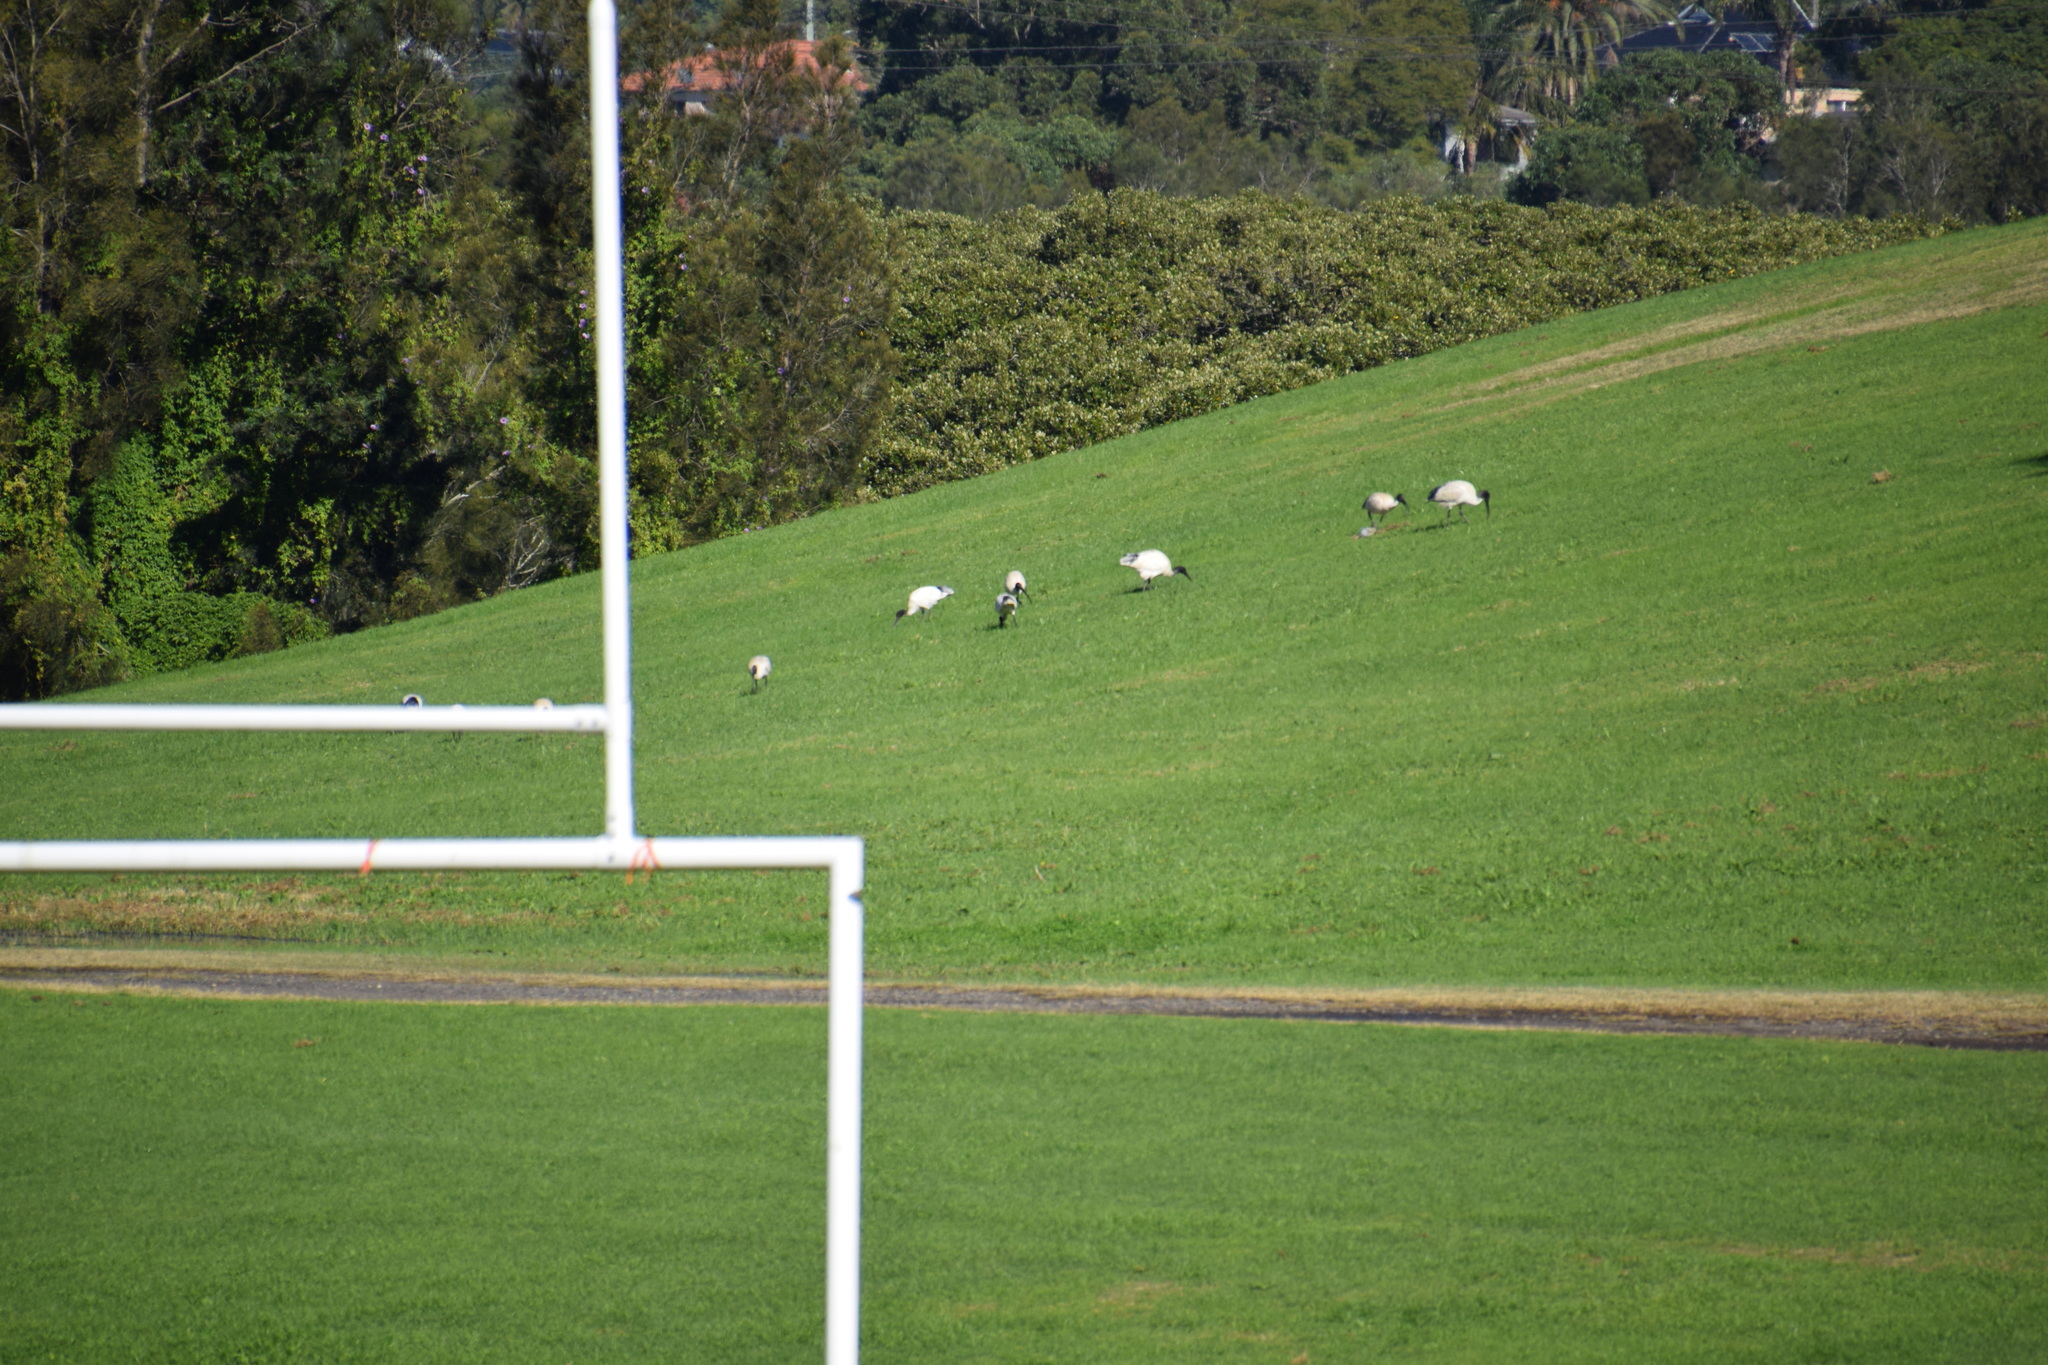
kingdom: Animalia
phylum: Chordata
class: Aves
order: Pelecaniformes
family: Threskiornithidae
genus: Threskiornis
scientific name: Threskiornis molucca
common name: Australian white ibis
